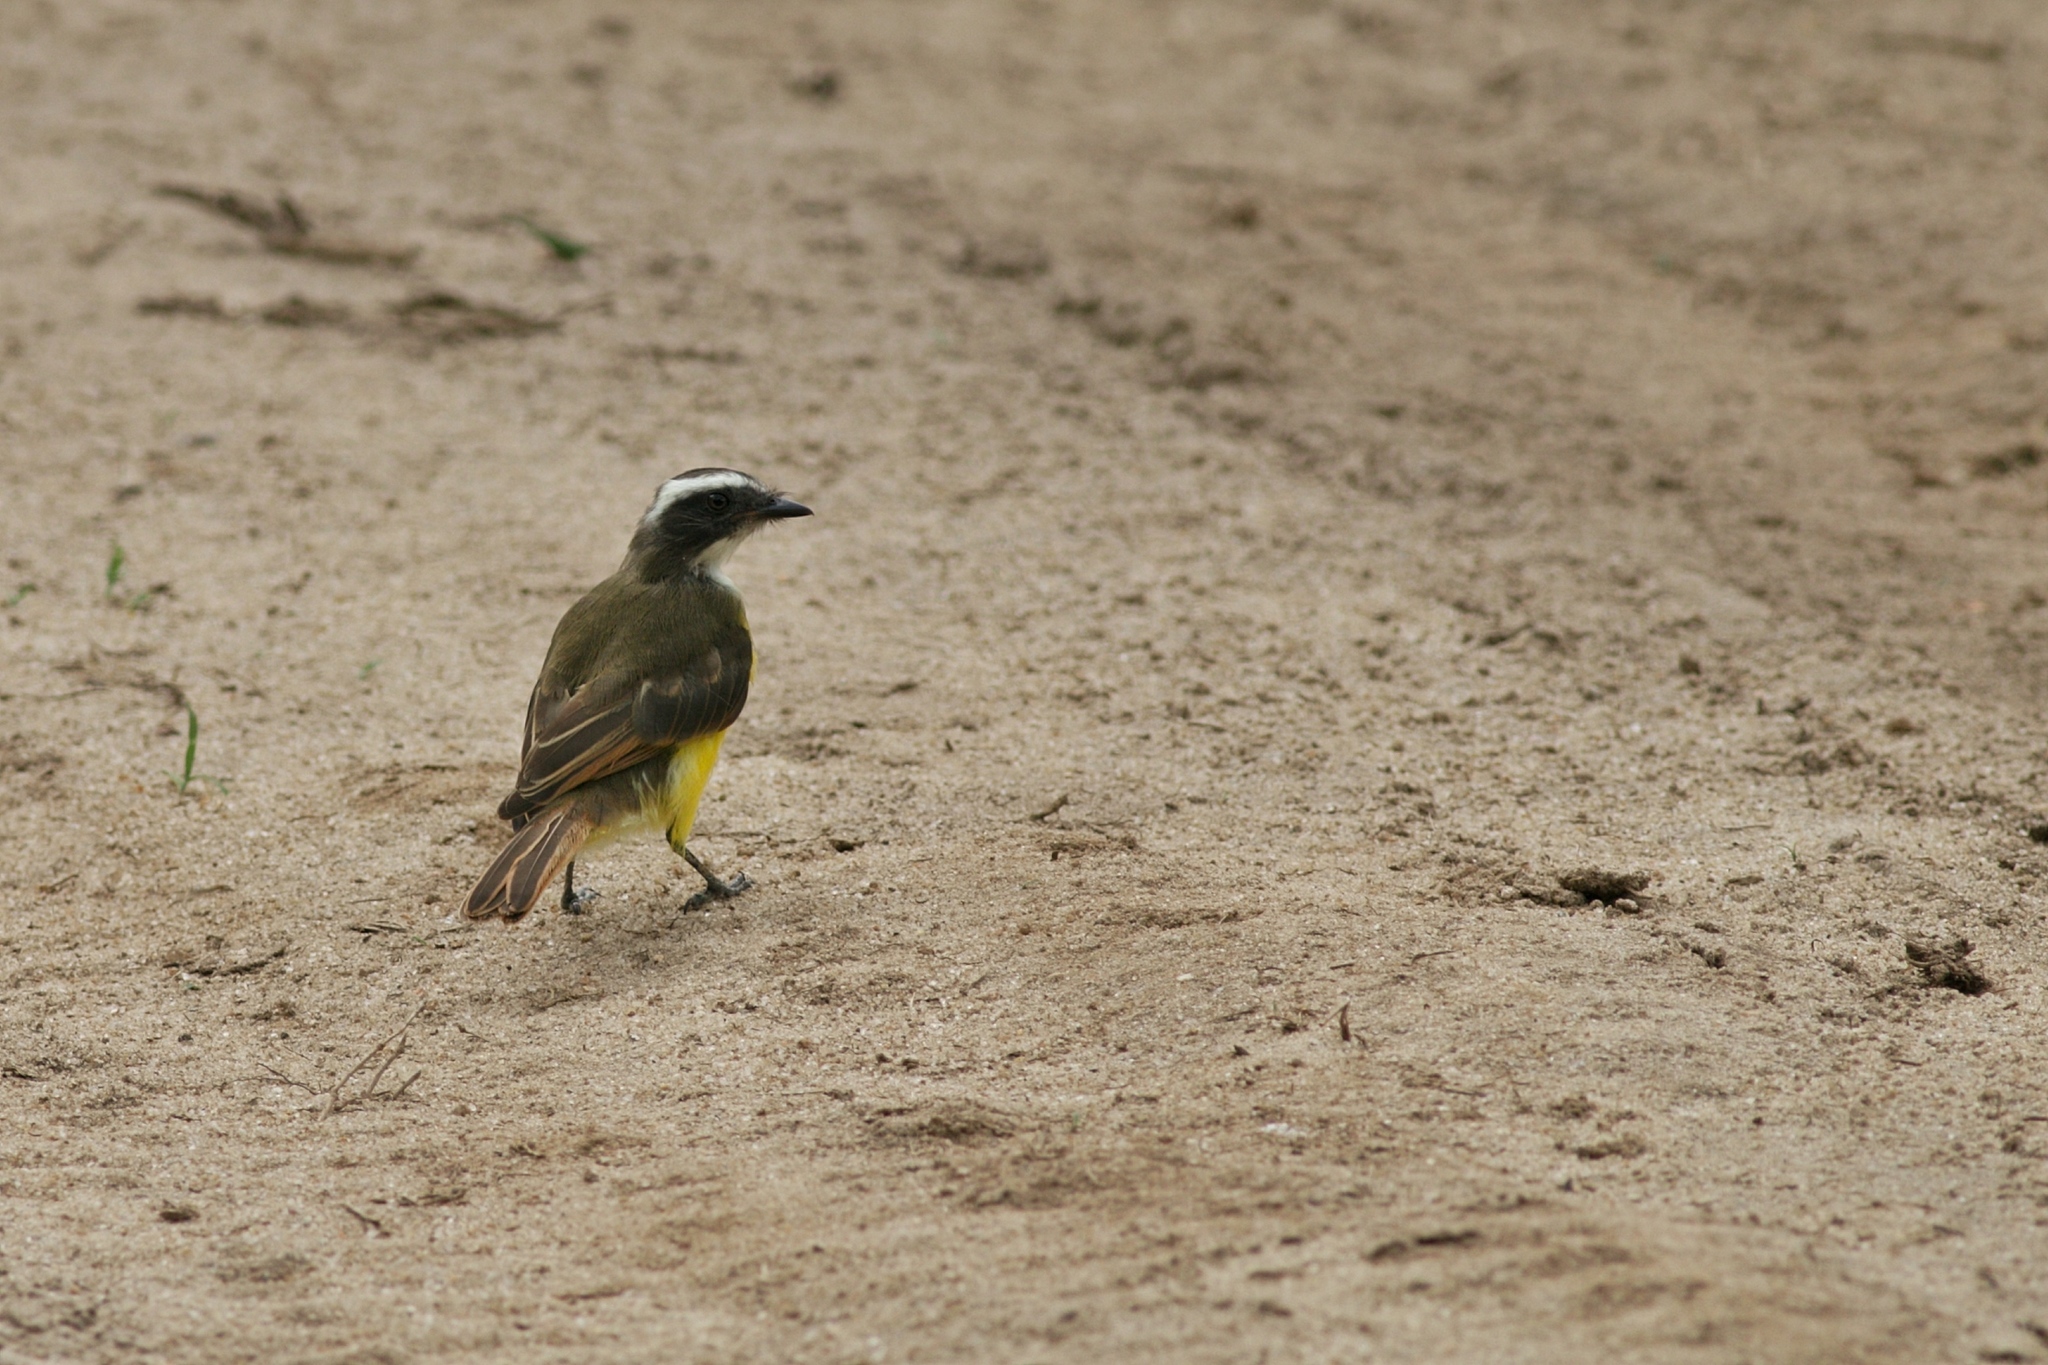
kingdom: Animalia
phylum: Chordata
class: Aves
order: Passeriformes
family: Tyrannidae
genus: Myiozetetes
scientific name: Myiozetetes cayanensis
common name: Rusty-margined flycatcher
